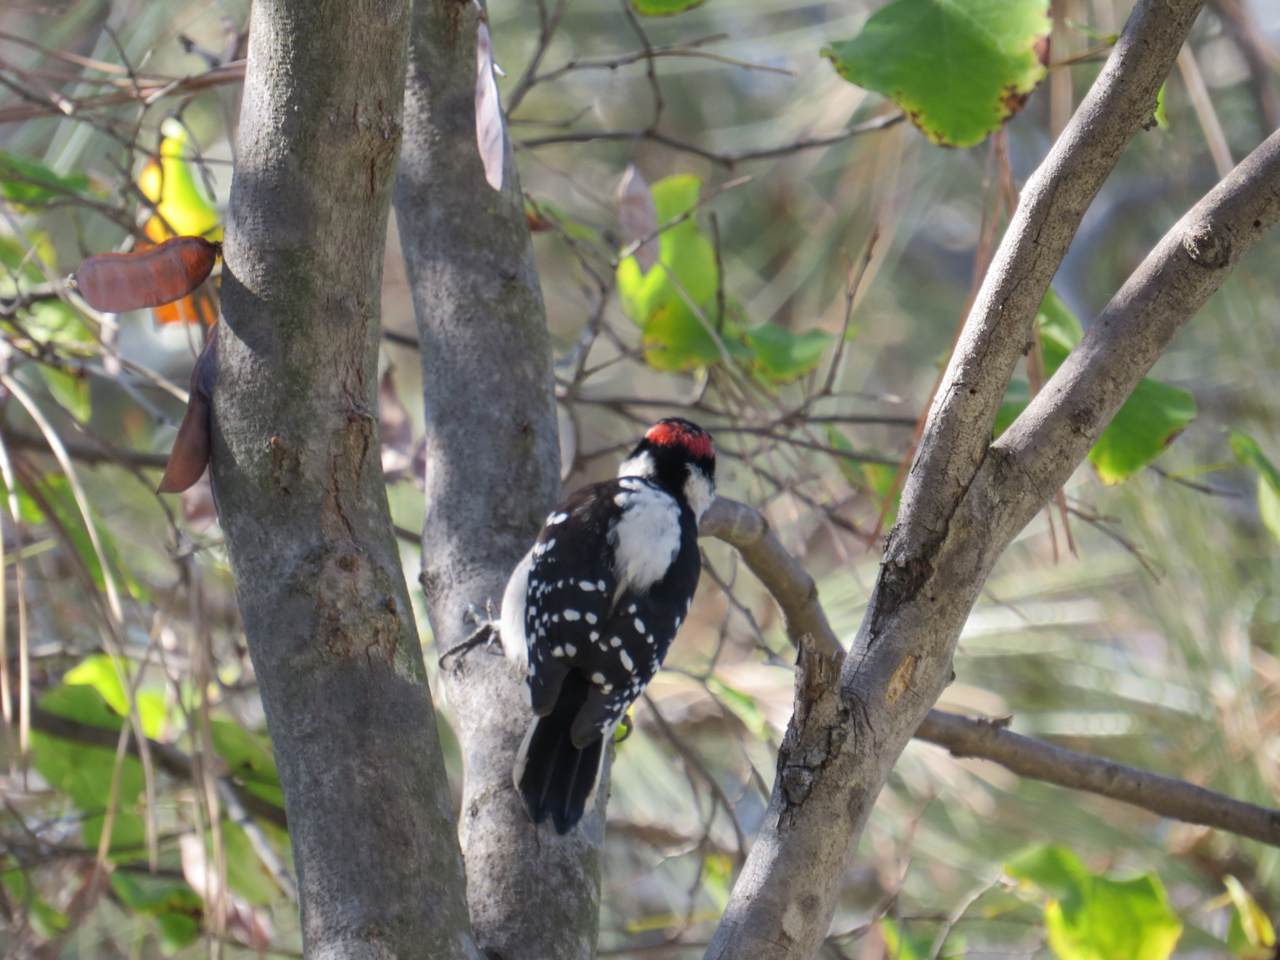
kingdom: Animalia
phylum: Chordata
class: Aves
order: Piciformes
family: Picidae
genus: Dryobates
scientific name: Dryobates pubescens
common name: Downy woodpecker
